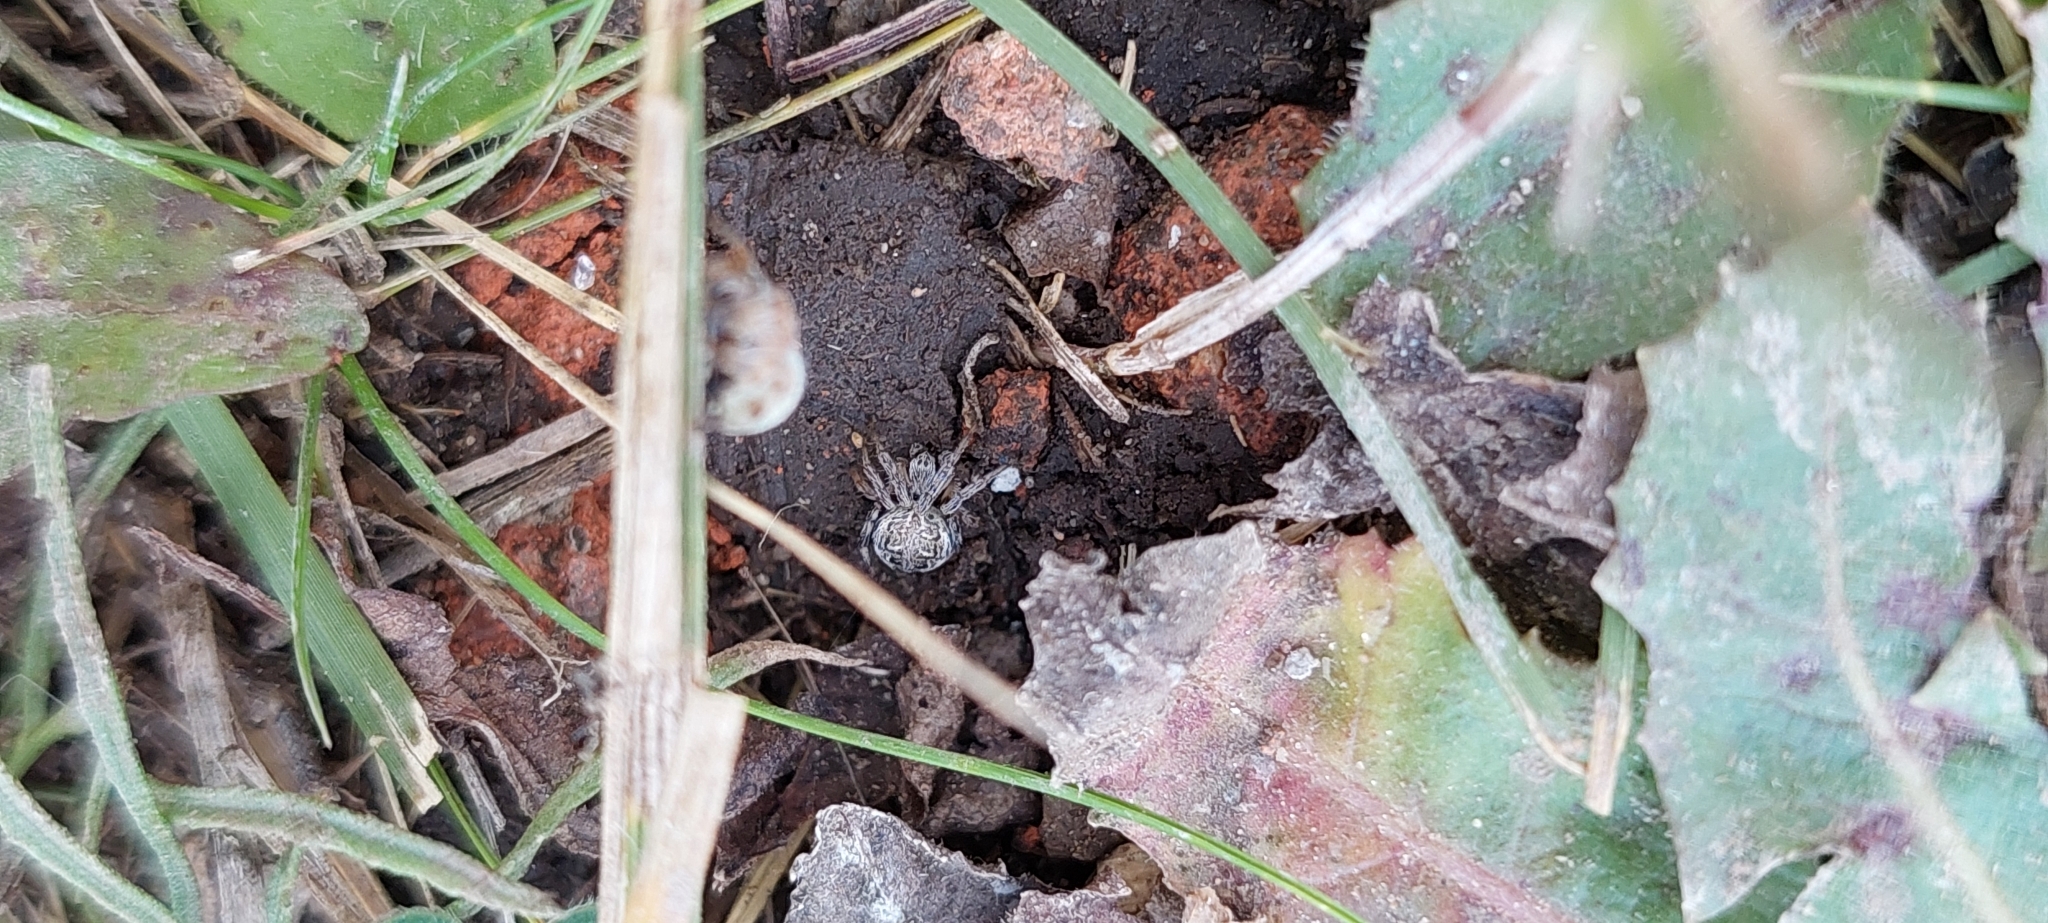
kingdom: Animalia
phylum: Arthropoda
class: Arachnida
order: Araneae
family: Araneidae
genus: Metepeira
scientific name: Metepeira
